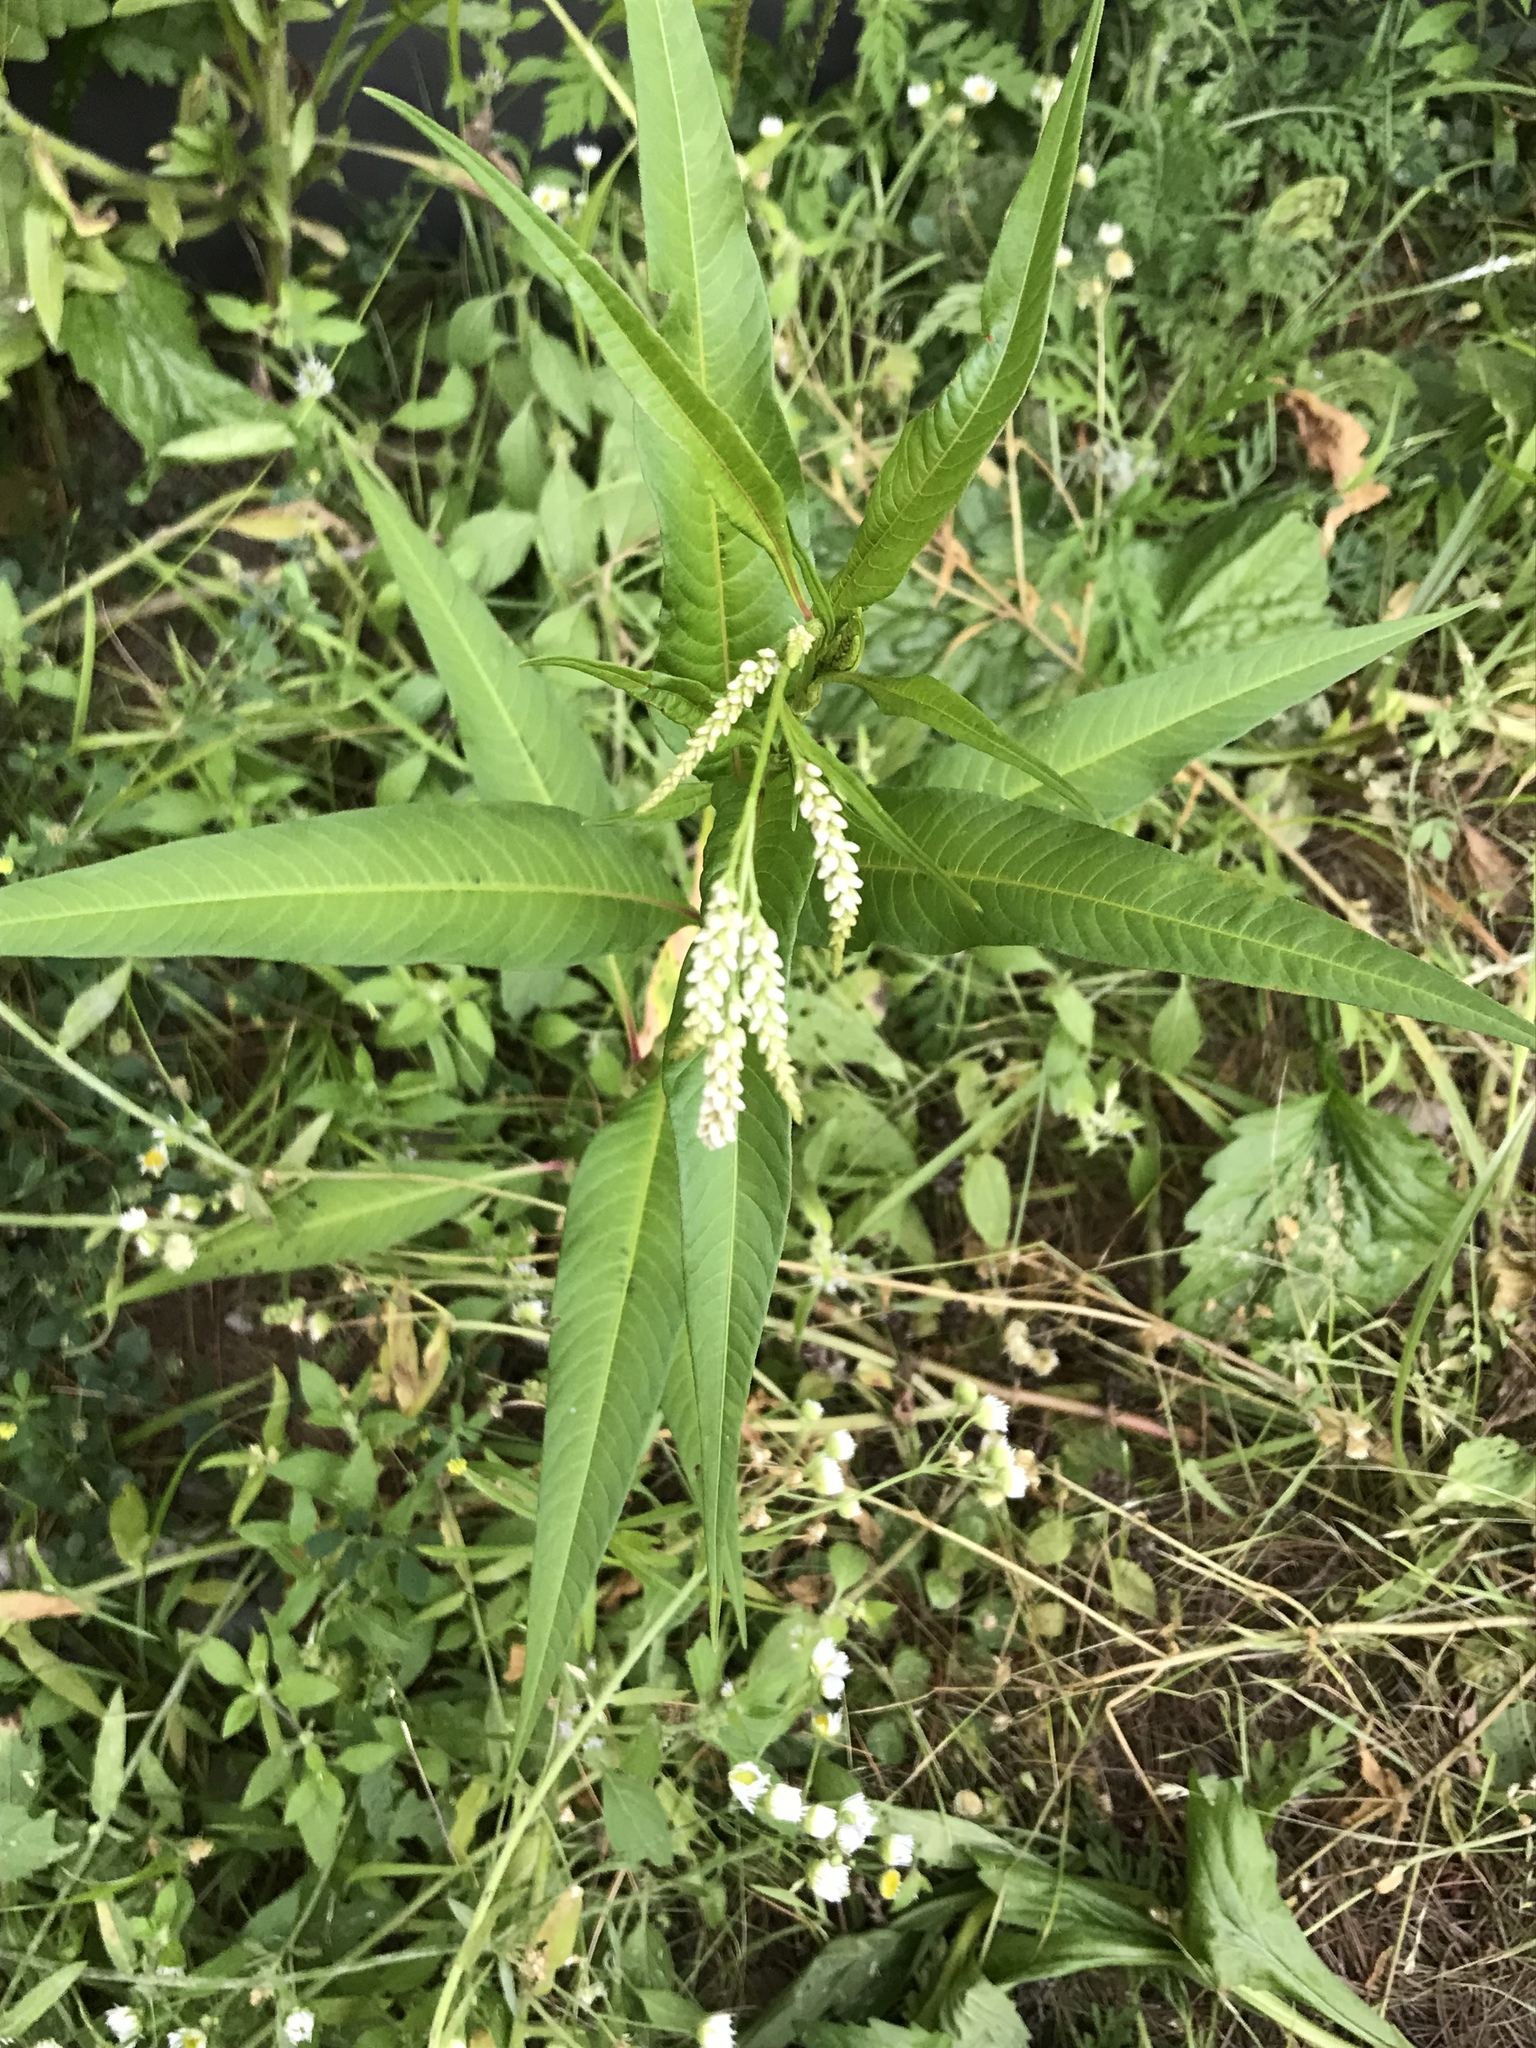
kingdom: Plantae
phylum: Tracheophyta
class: Magnoliopsida
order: Caryophyllales
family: Polygonaceae
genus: Persicaria
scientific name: Persicaria lapathifolia
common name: Curlytop knotweed
